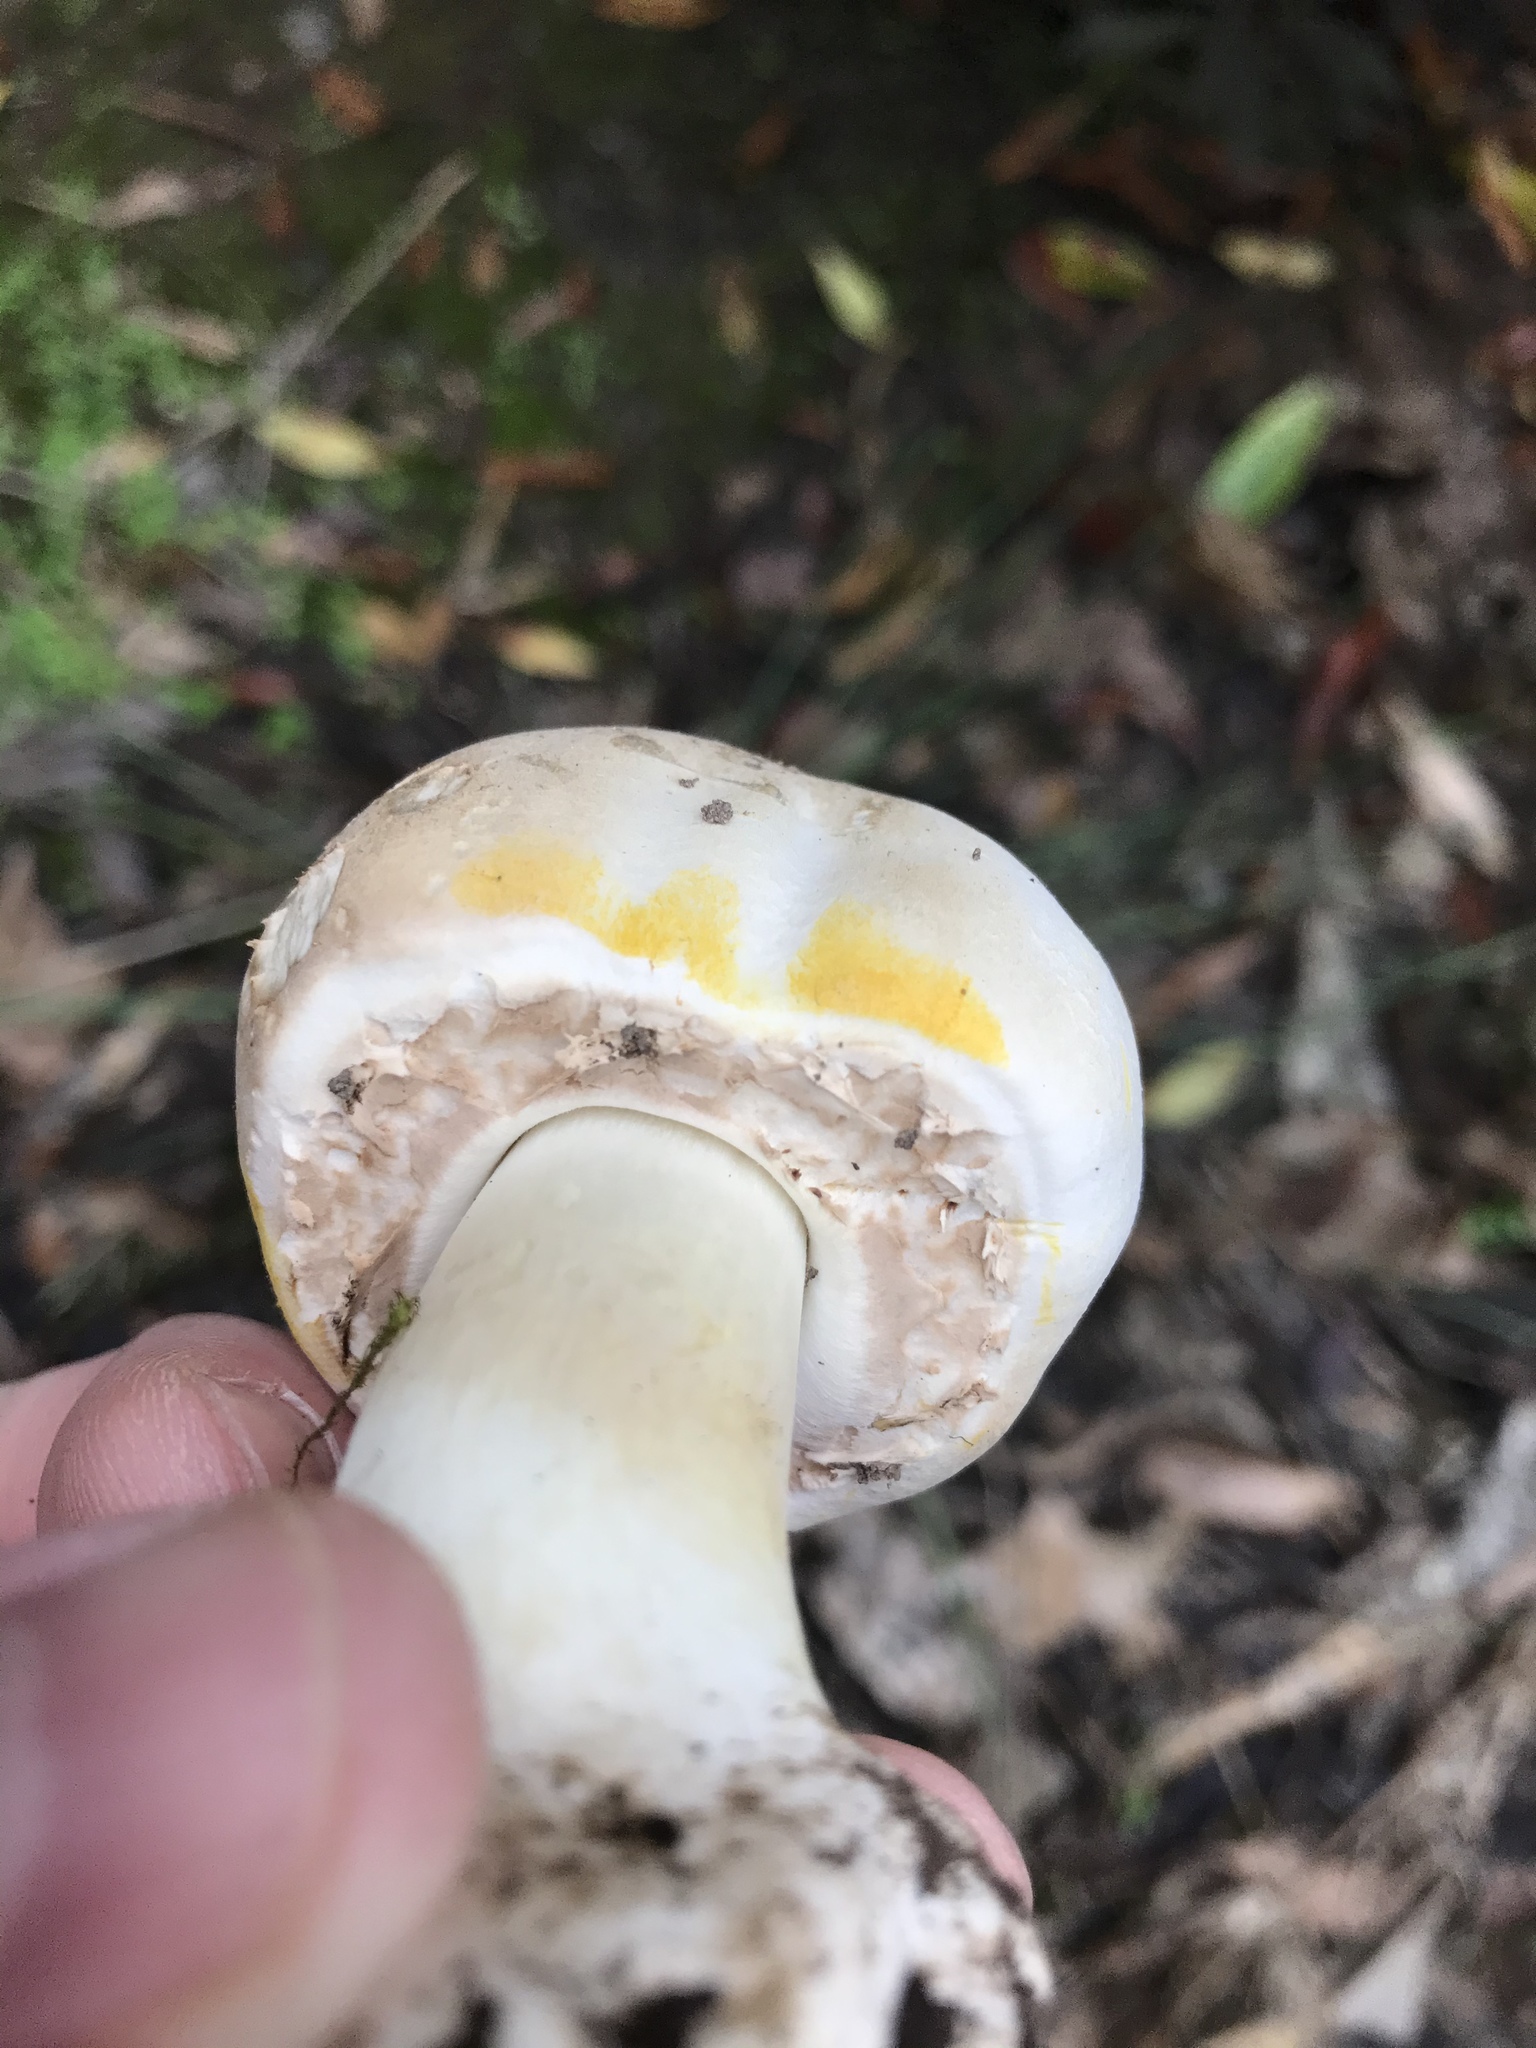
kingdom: Fungi
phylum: Basidiomycota
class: Agaricomycetes
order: Agaricales
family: Agaricaceae
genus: Agaricus
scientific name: Agaricus xanthodermus
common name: Yellow stainer
